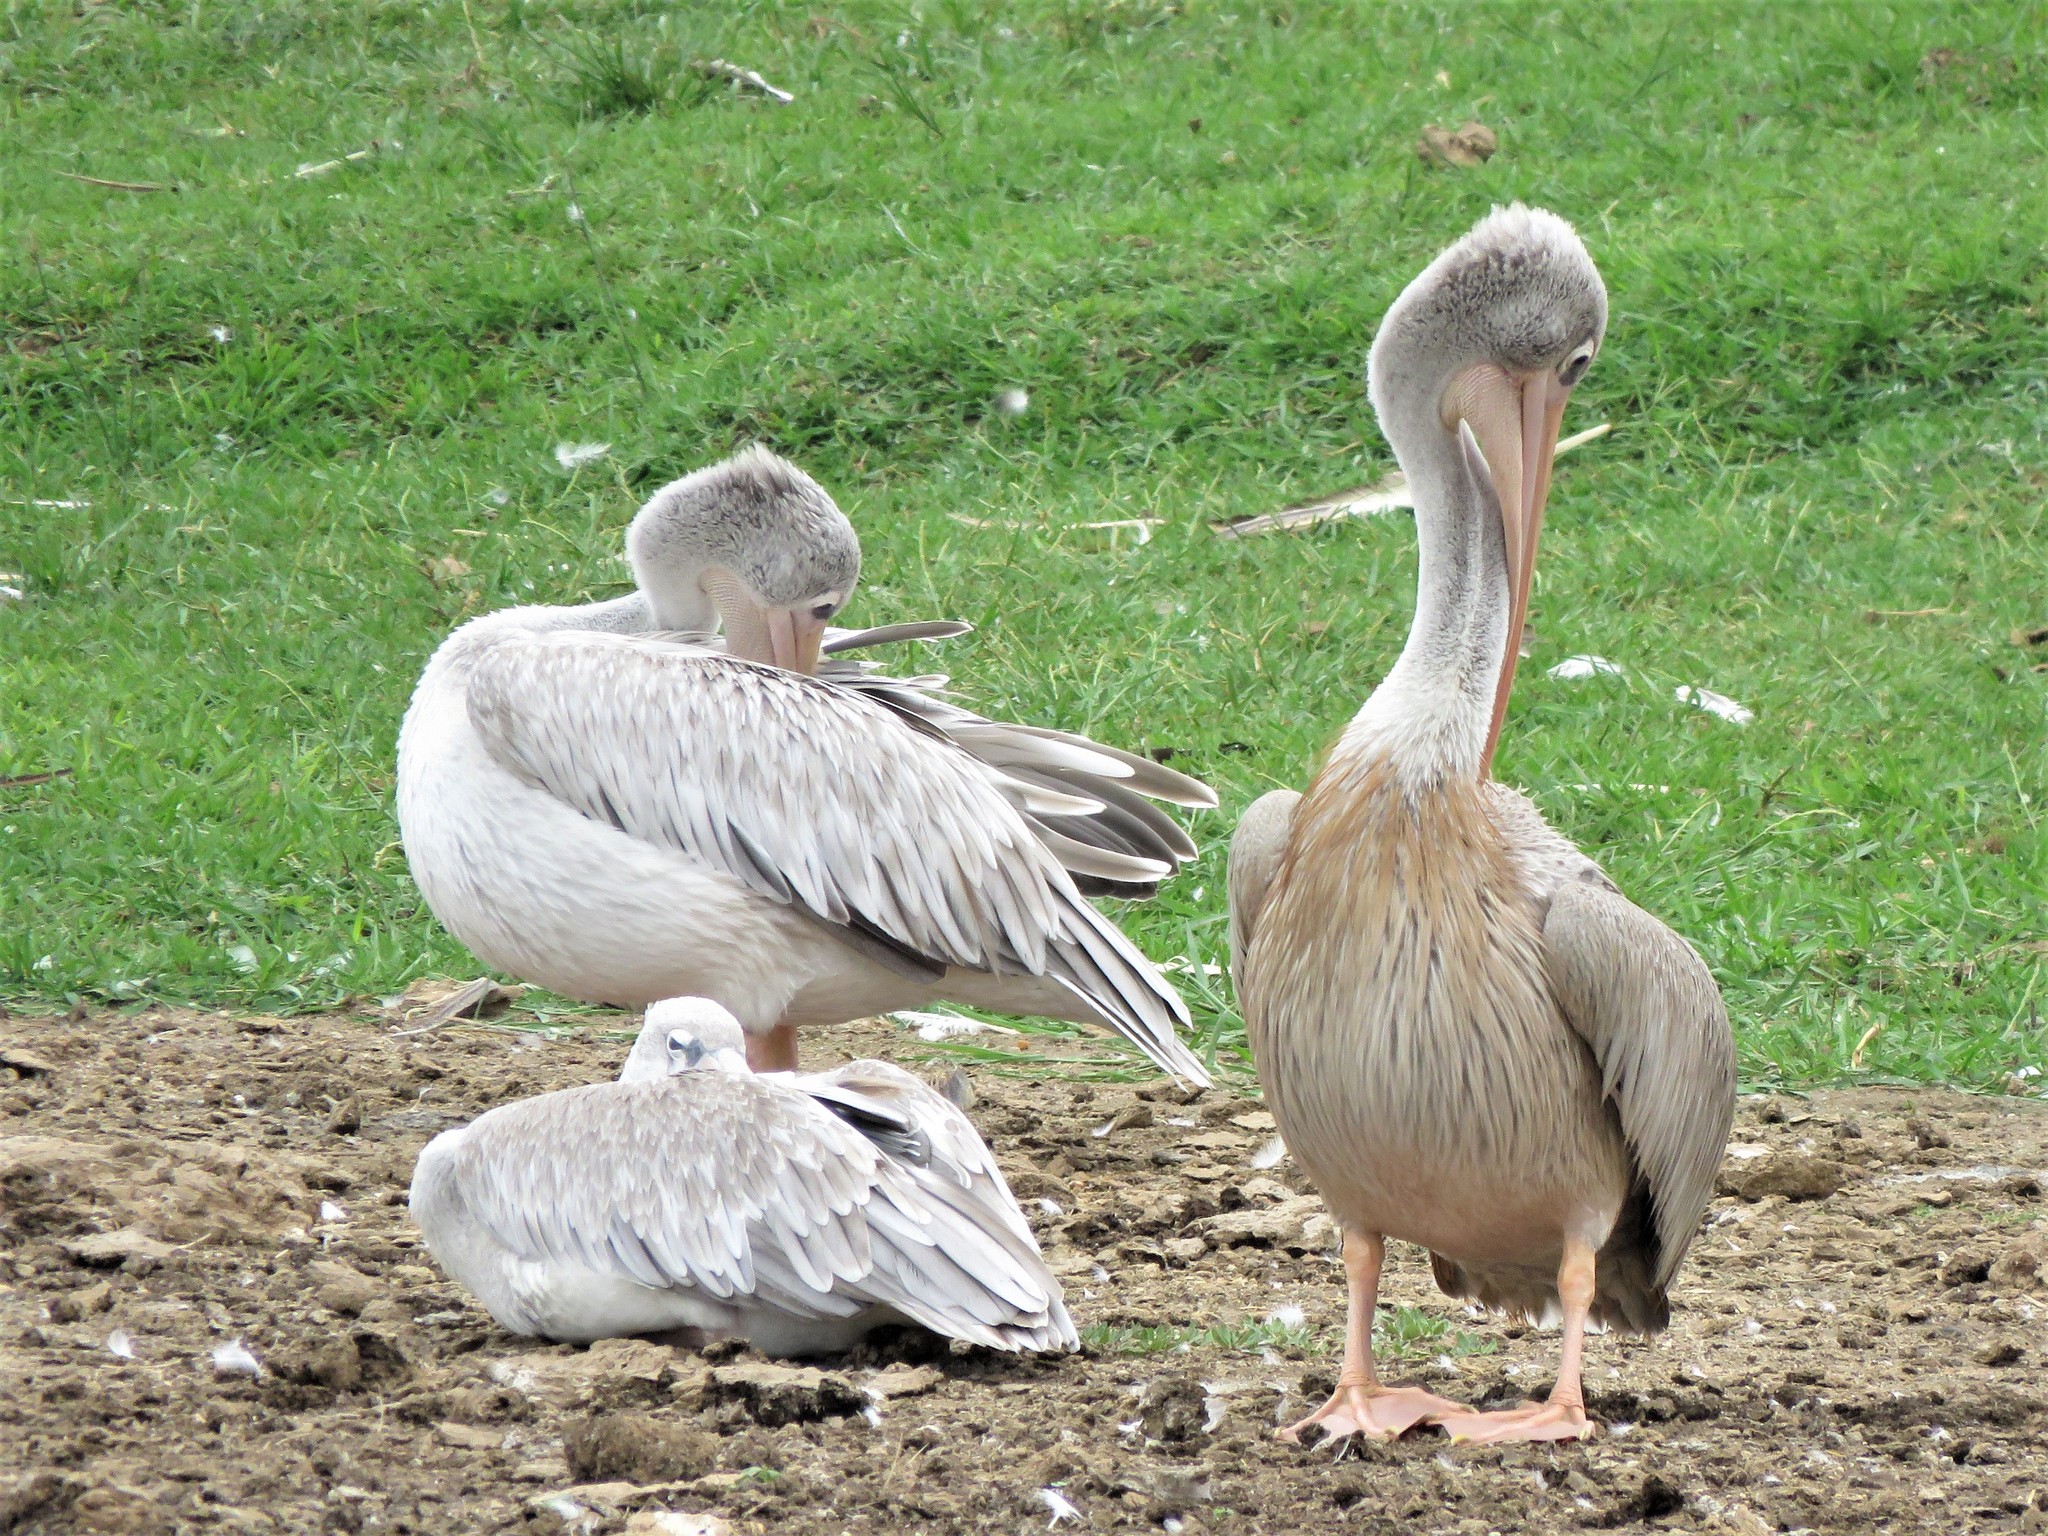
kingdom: Animalia
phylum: Chordata
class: Aves
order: Pelecaniformes
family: Pelecanidae
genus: Pelecanus
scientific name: Pelecanus rufescens
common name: Pink-backed pelican
